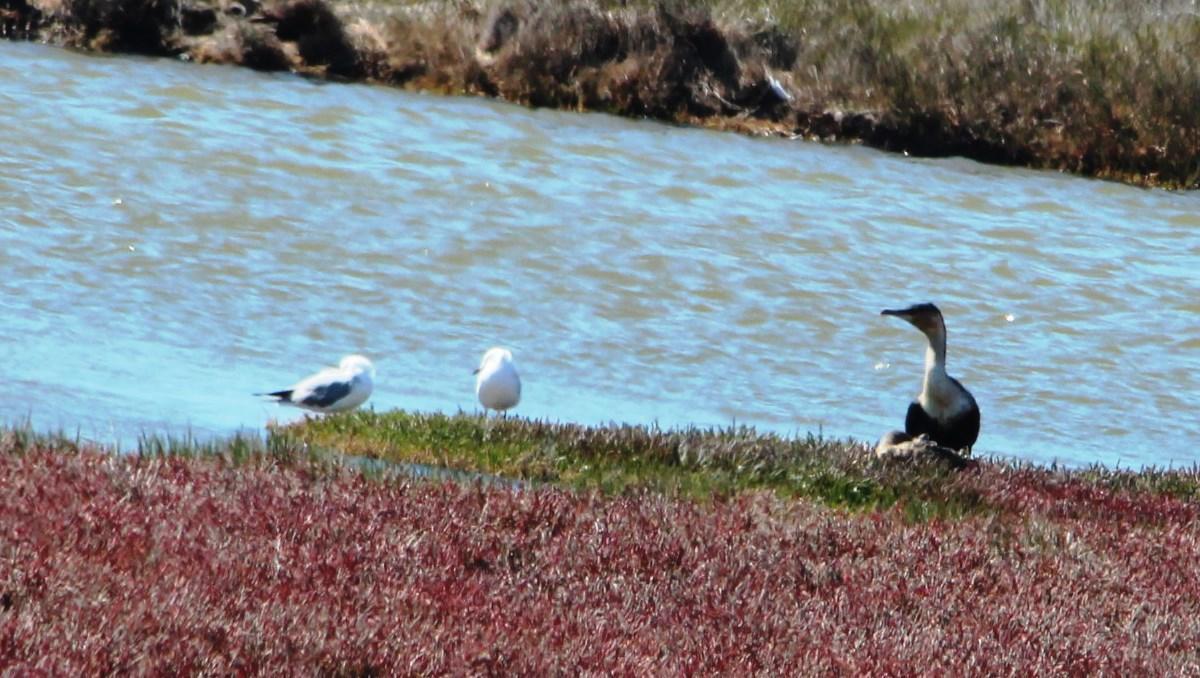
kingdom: Animalia
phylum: Chordata
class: Aves
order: Suliformes
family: Phalacrocoracidae
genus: Phalacrocorax
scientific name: Phalacrocorax carbo
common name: Great cormorant
